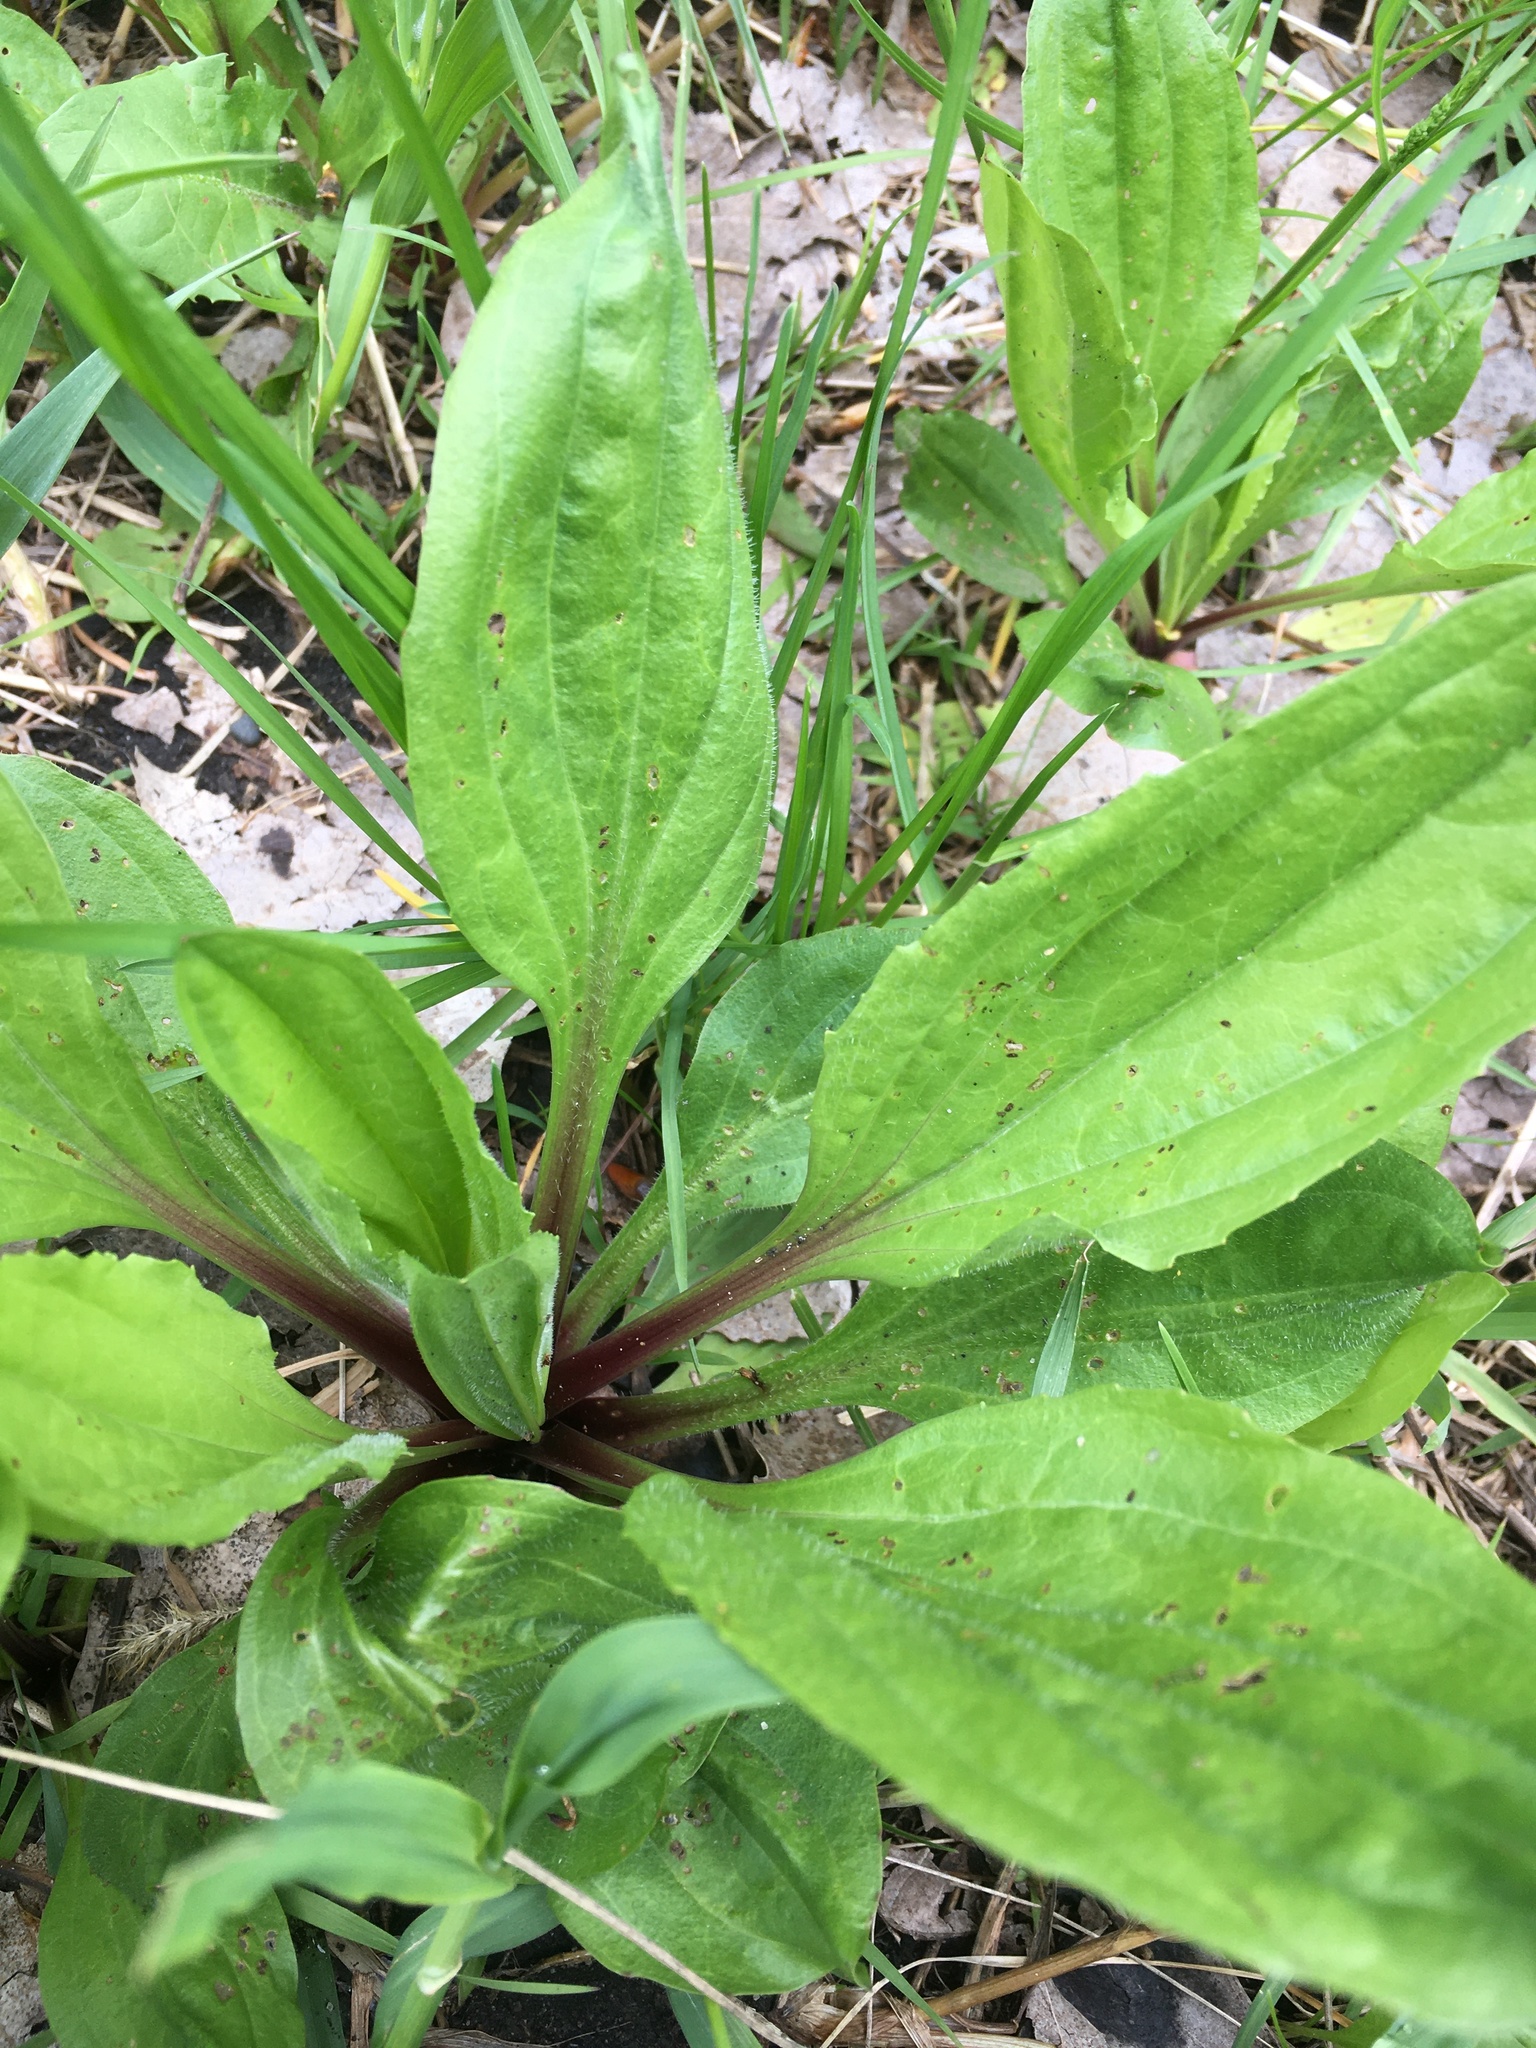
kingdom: Plantae
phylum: Tracheophyta
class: Magnoliopsida
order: Lamiales
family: Plantaginaceae
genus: Plantago
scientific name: Plantago rugelii
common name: American plantain
